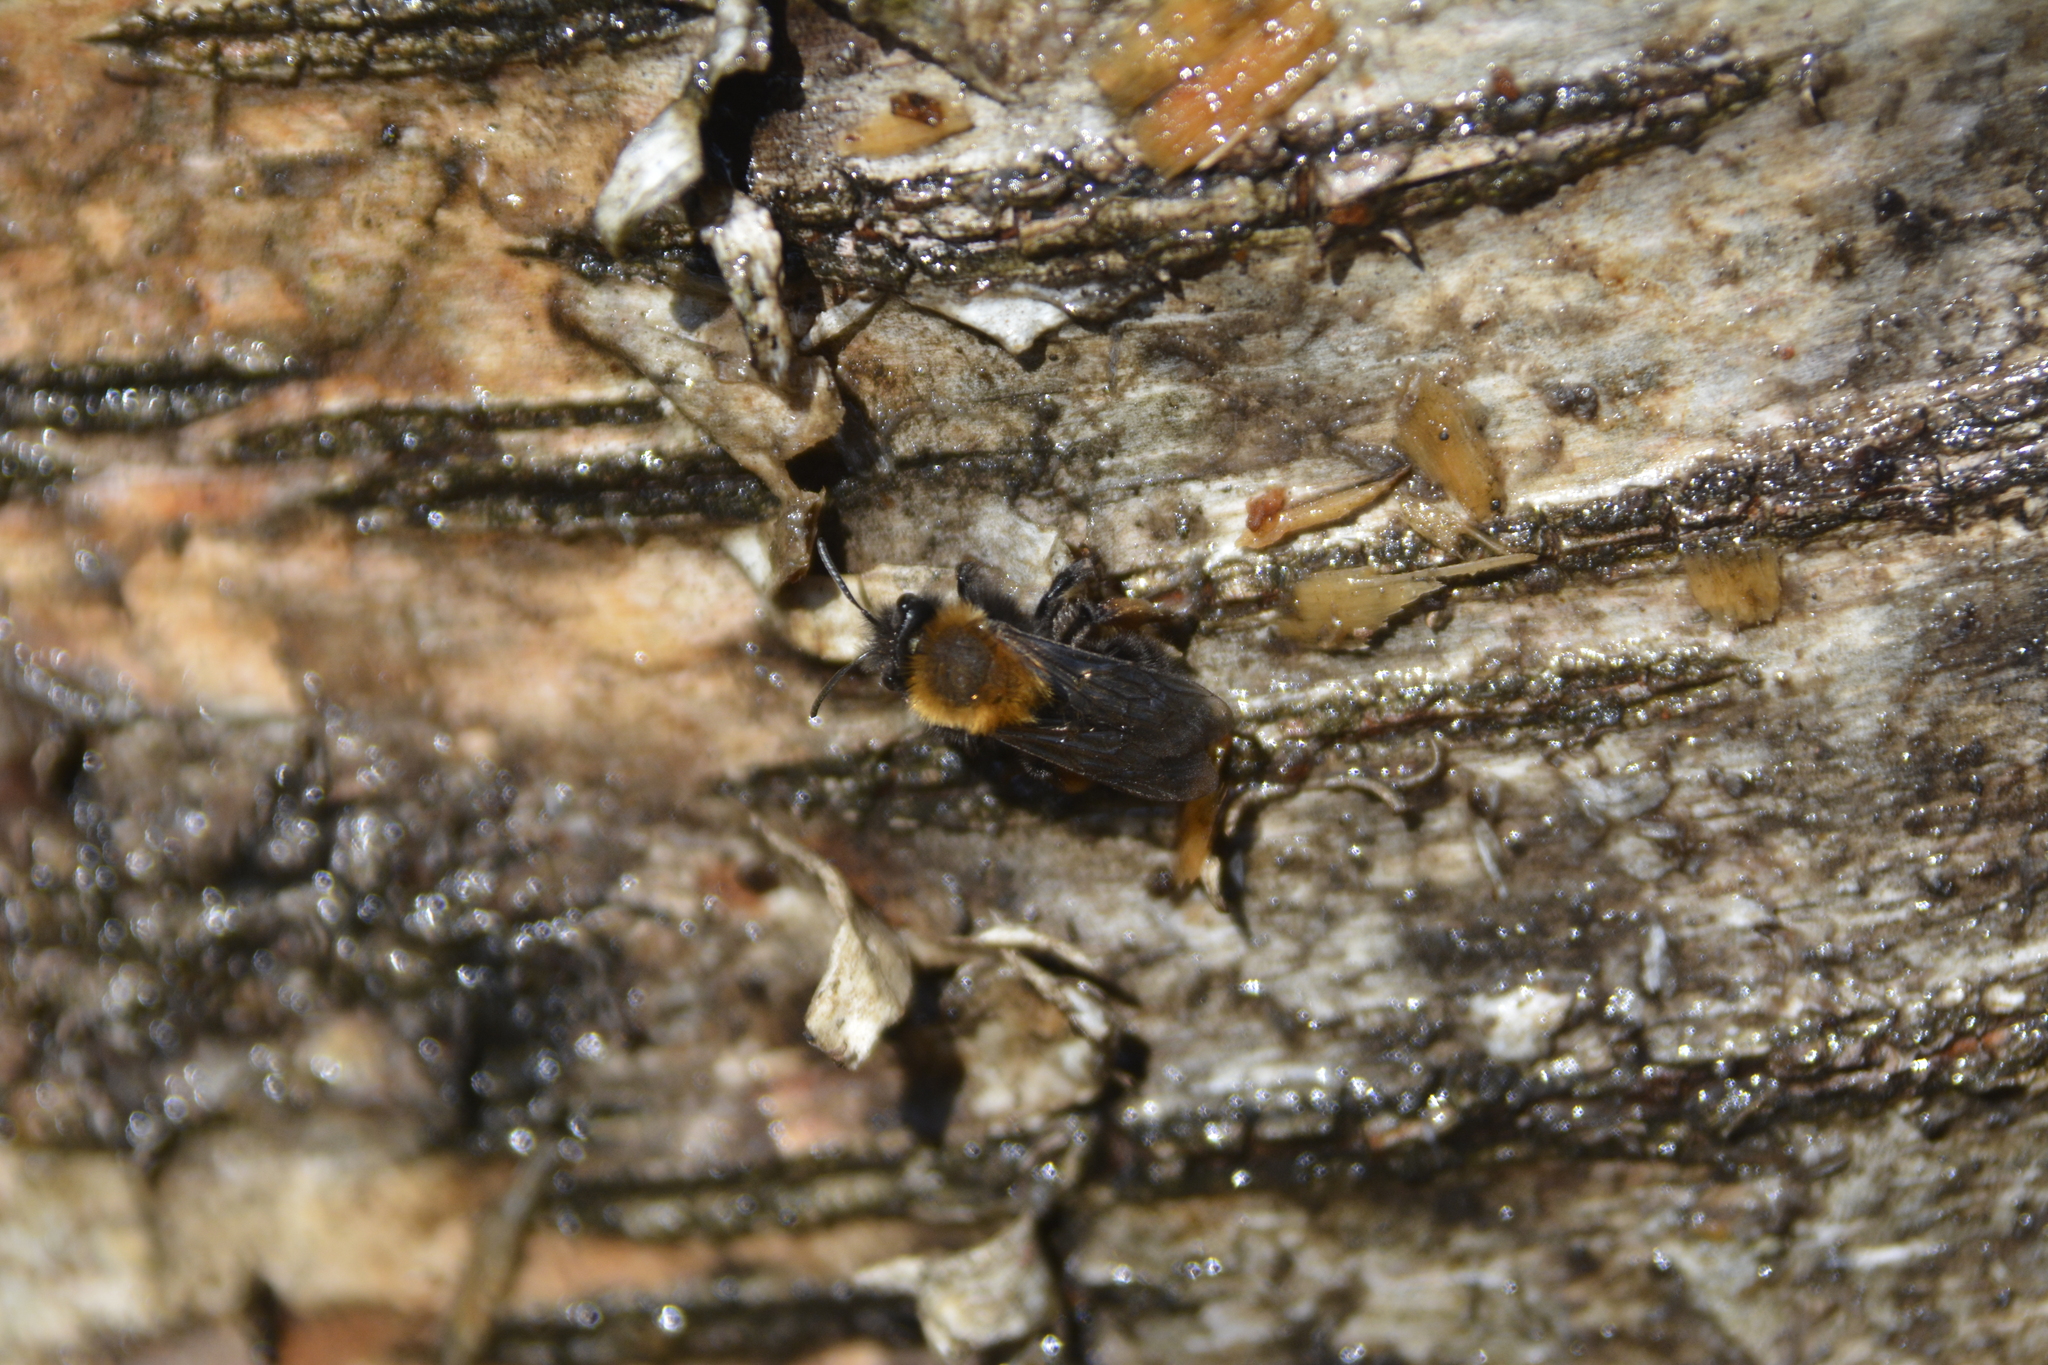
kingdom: Animalia
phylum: Arthropoda
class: Insecta
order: Hymenoptera
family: Andrenidae
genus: Andrena
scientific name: Andrena clarkella
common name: Clarke's mining bee
